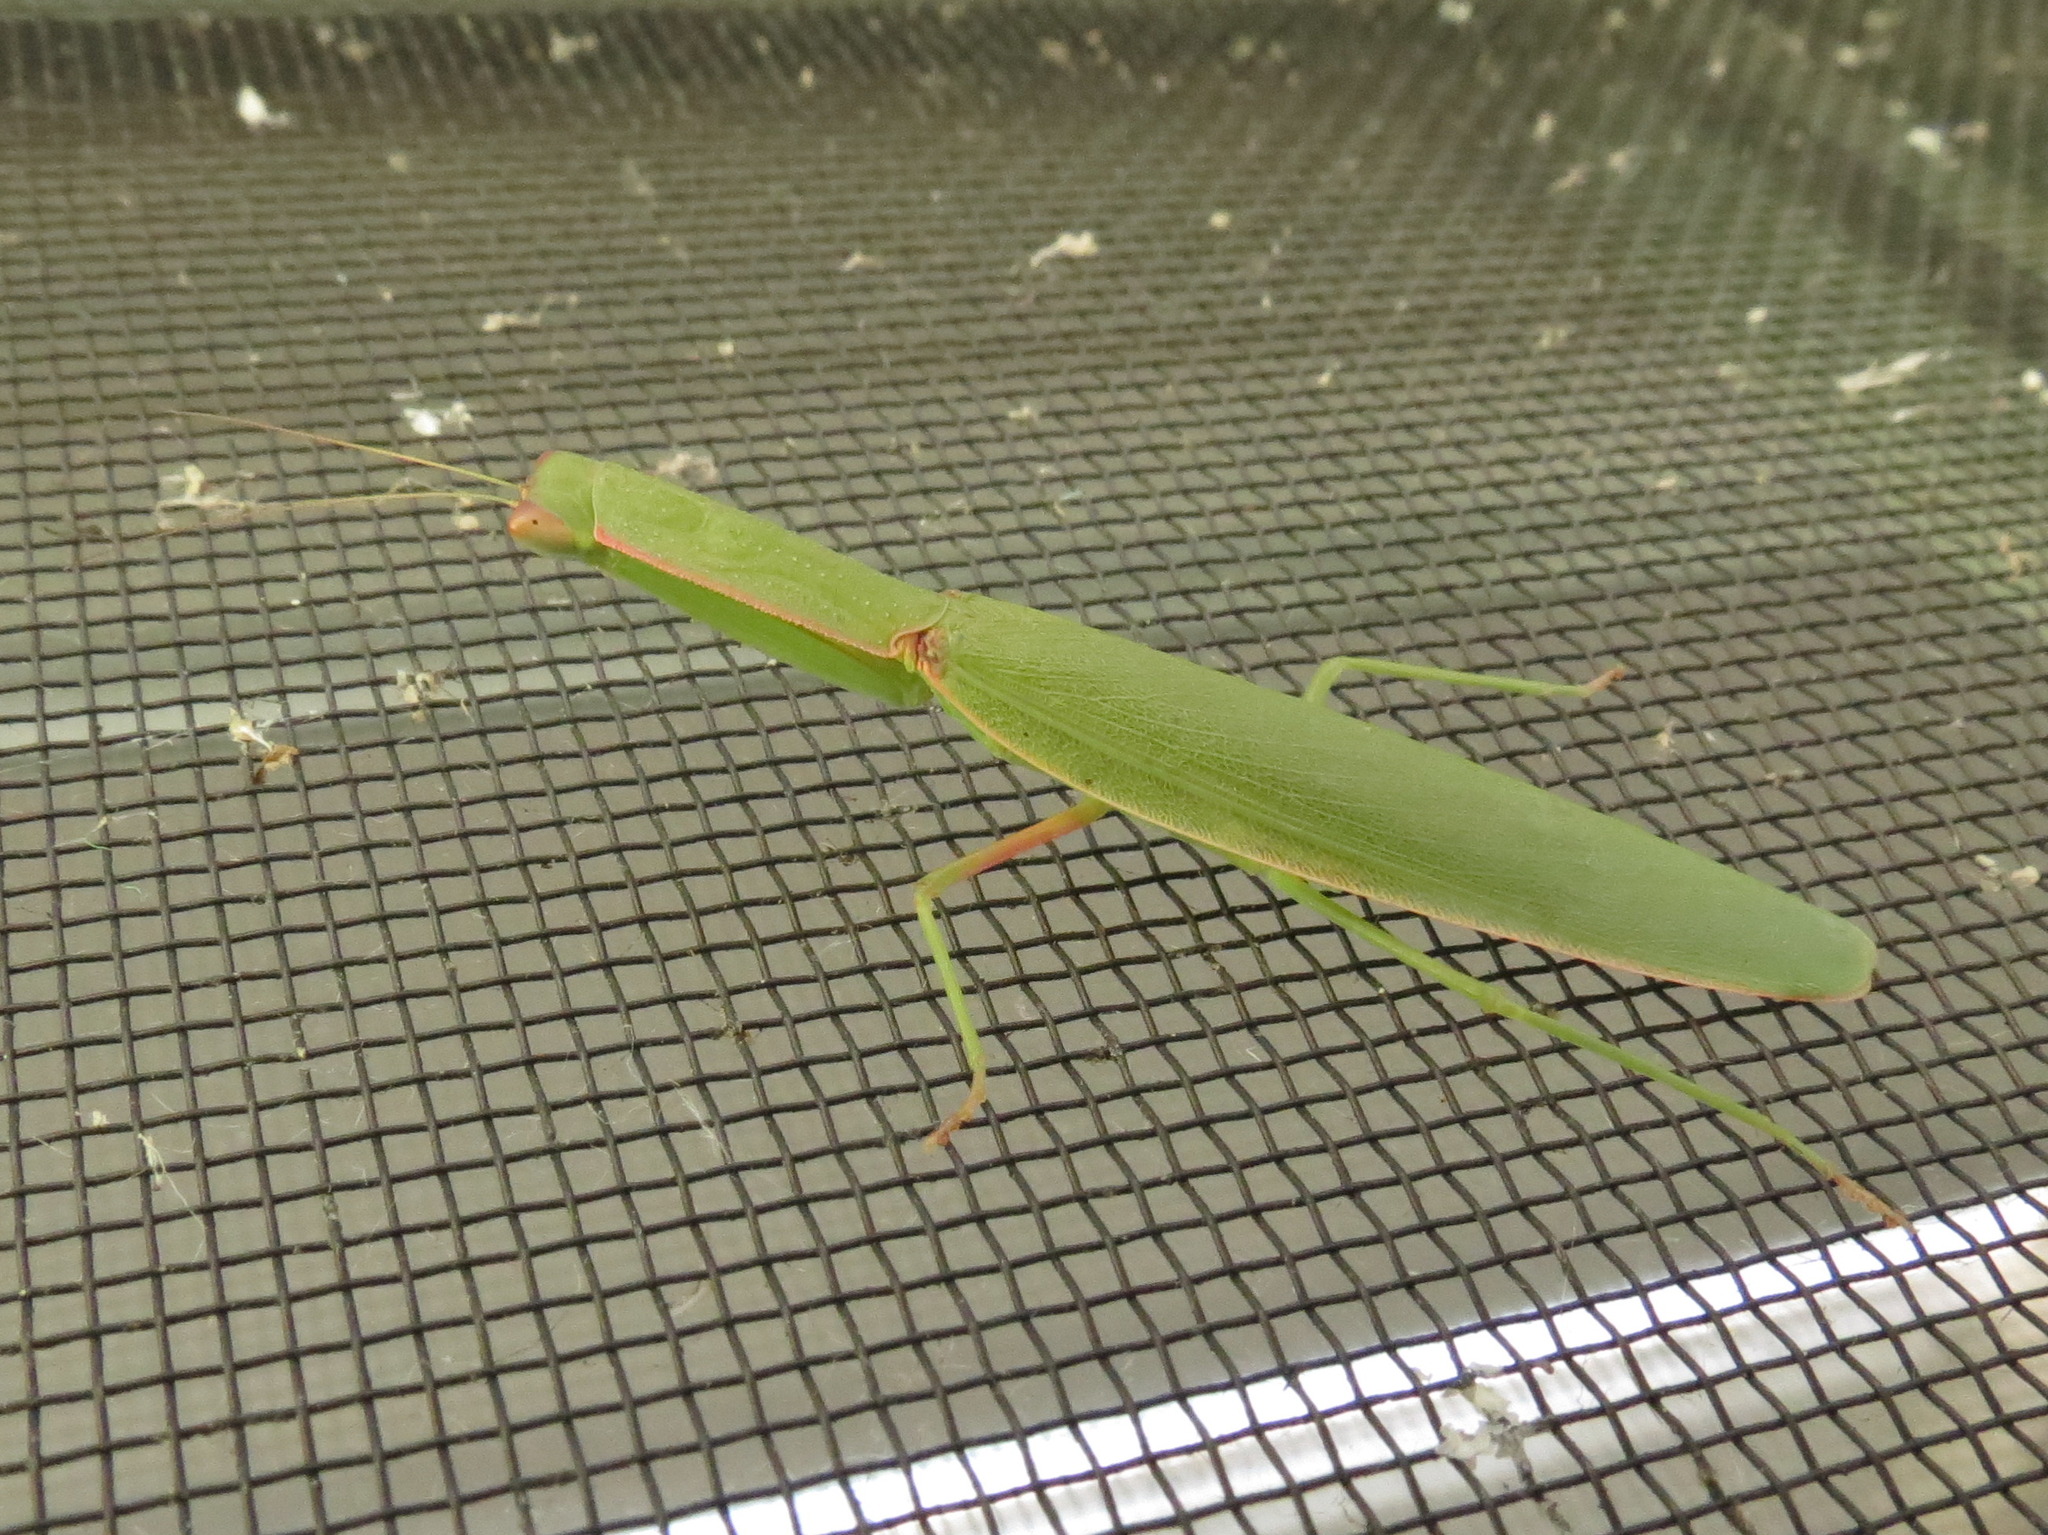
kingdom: Animalia
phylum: Arthropoda
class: Insecta
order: Mantodea
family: Mantidae
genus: Orthodera
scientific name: Orthodera ministralis
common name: Mantis
